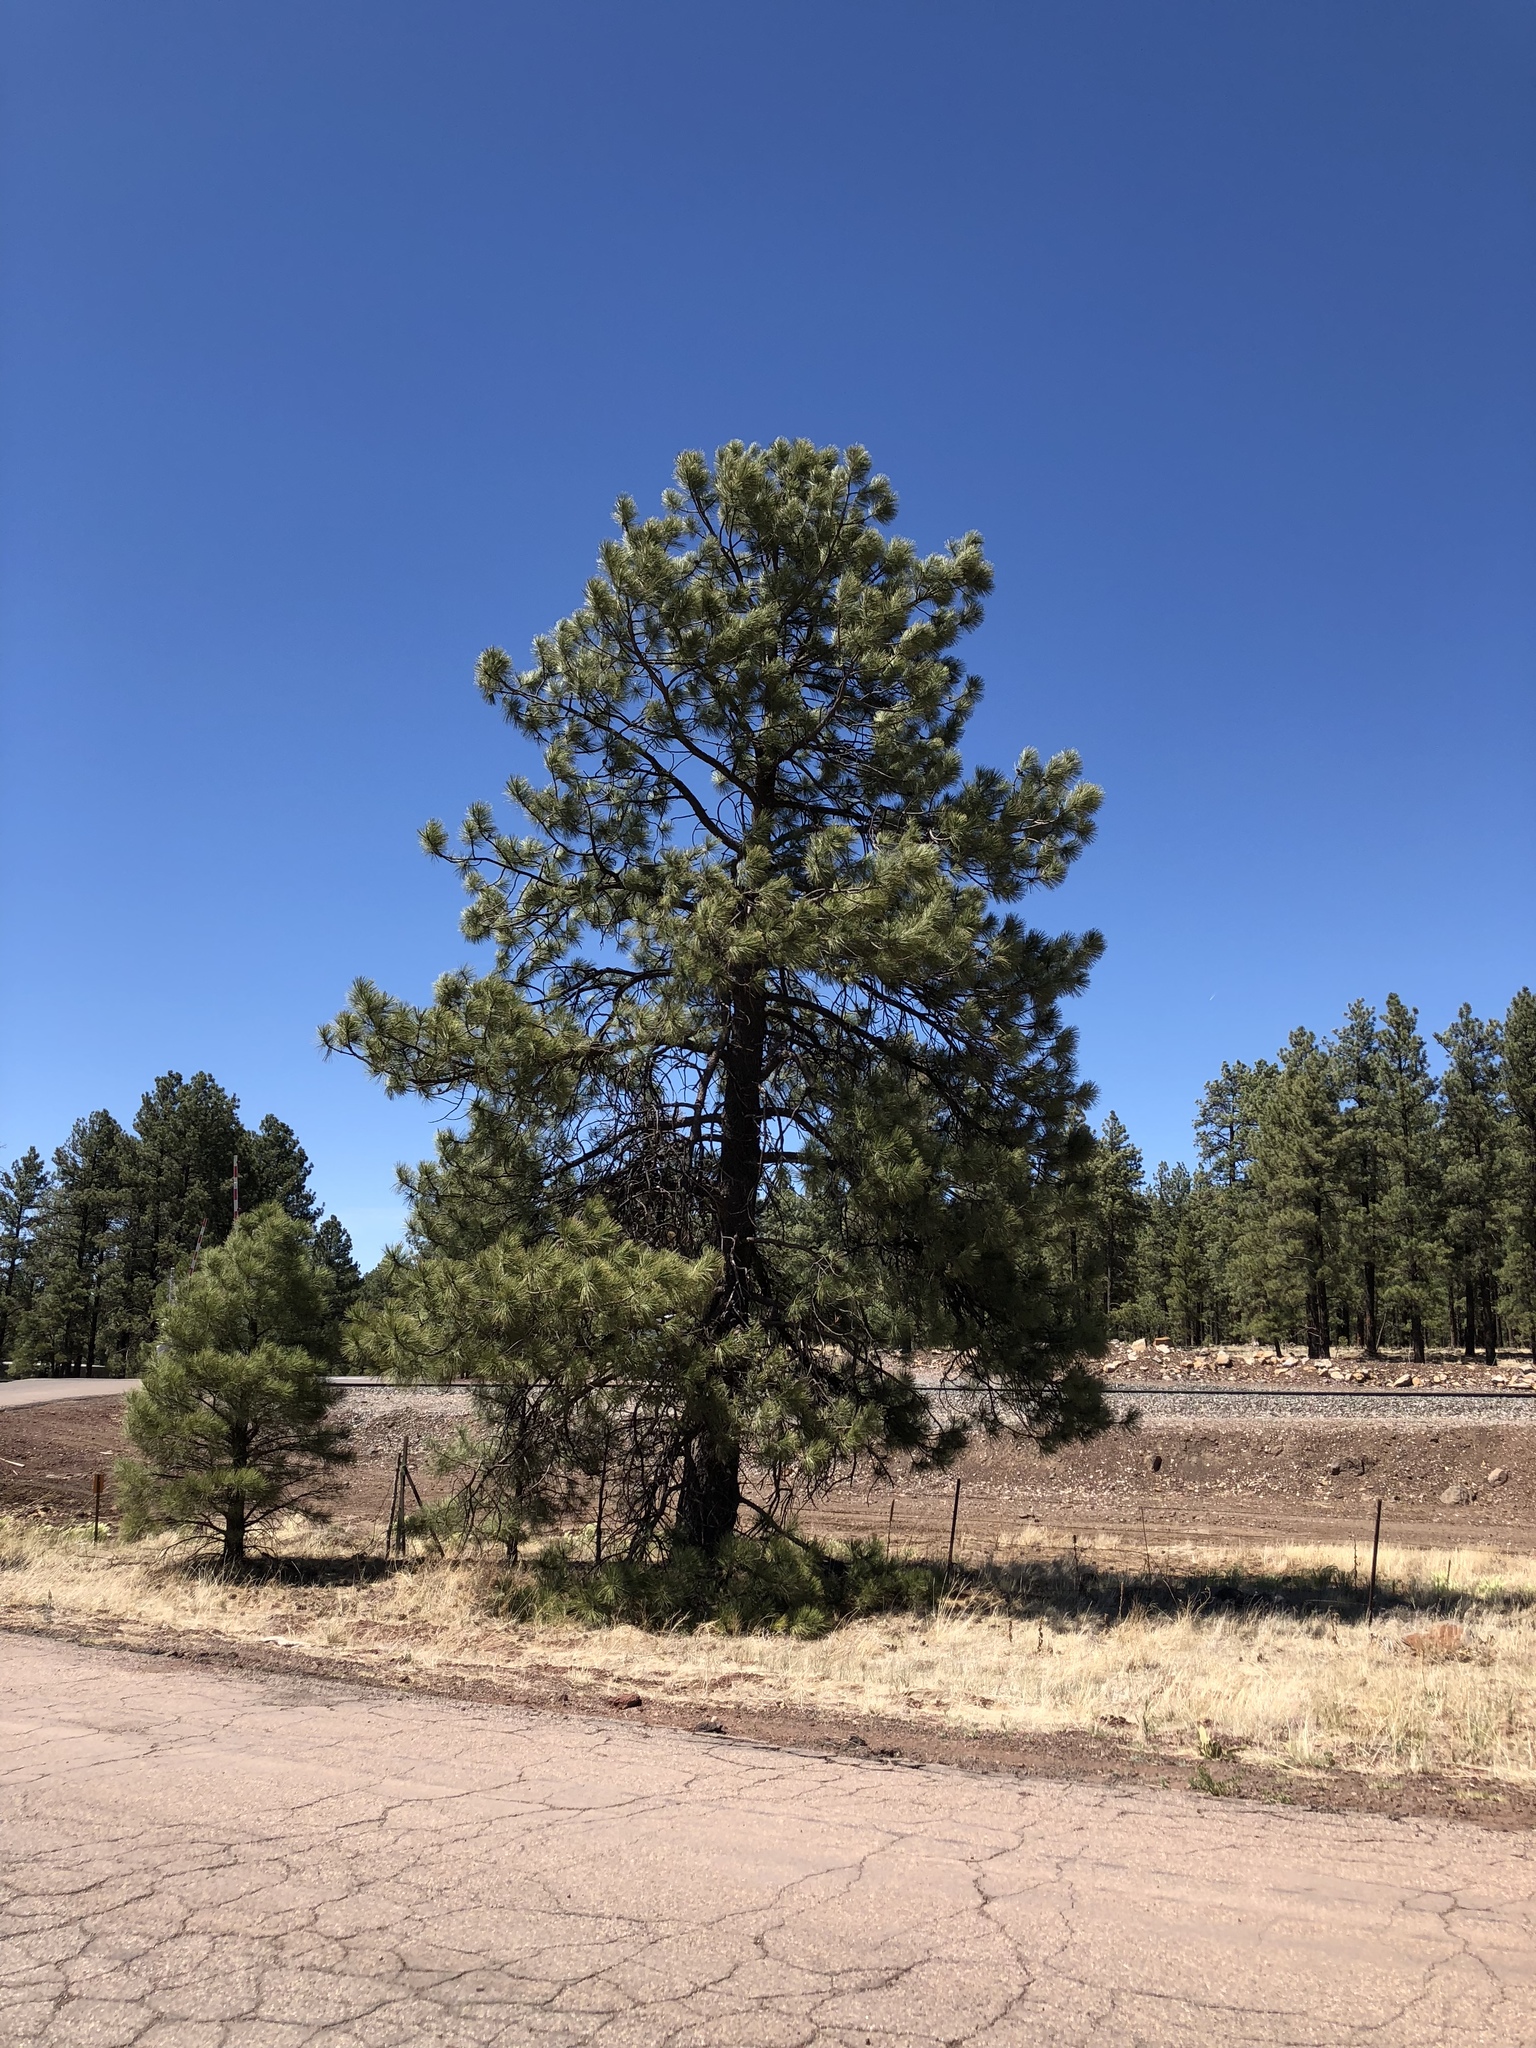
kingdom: Plantae
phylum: Tracheophyta
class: Pinopsida
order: Pinales
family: Pinaceae
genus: Pinus
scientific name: Pinus ponderosa
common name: Western yellow-pine
